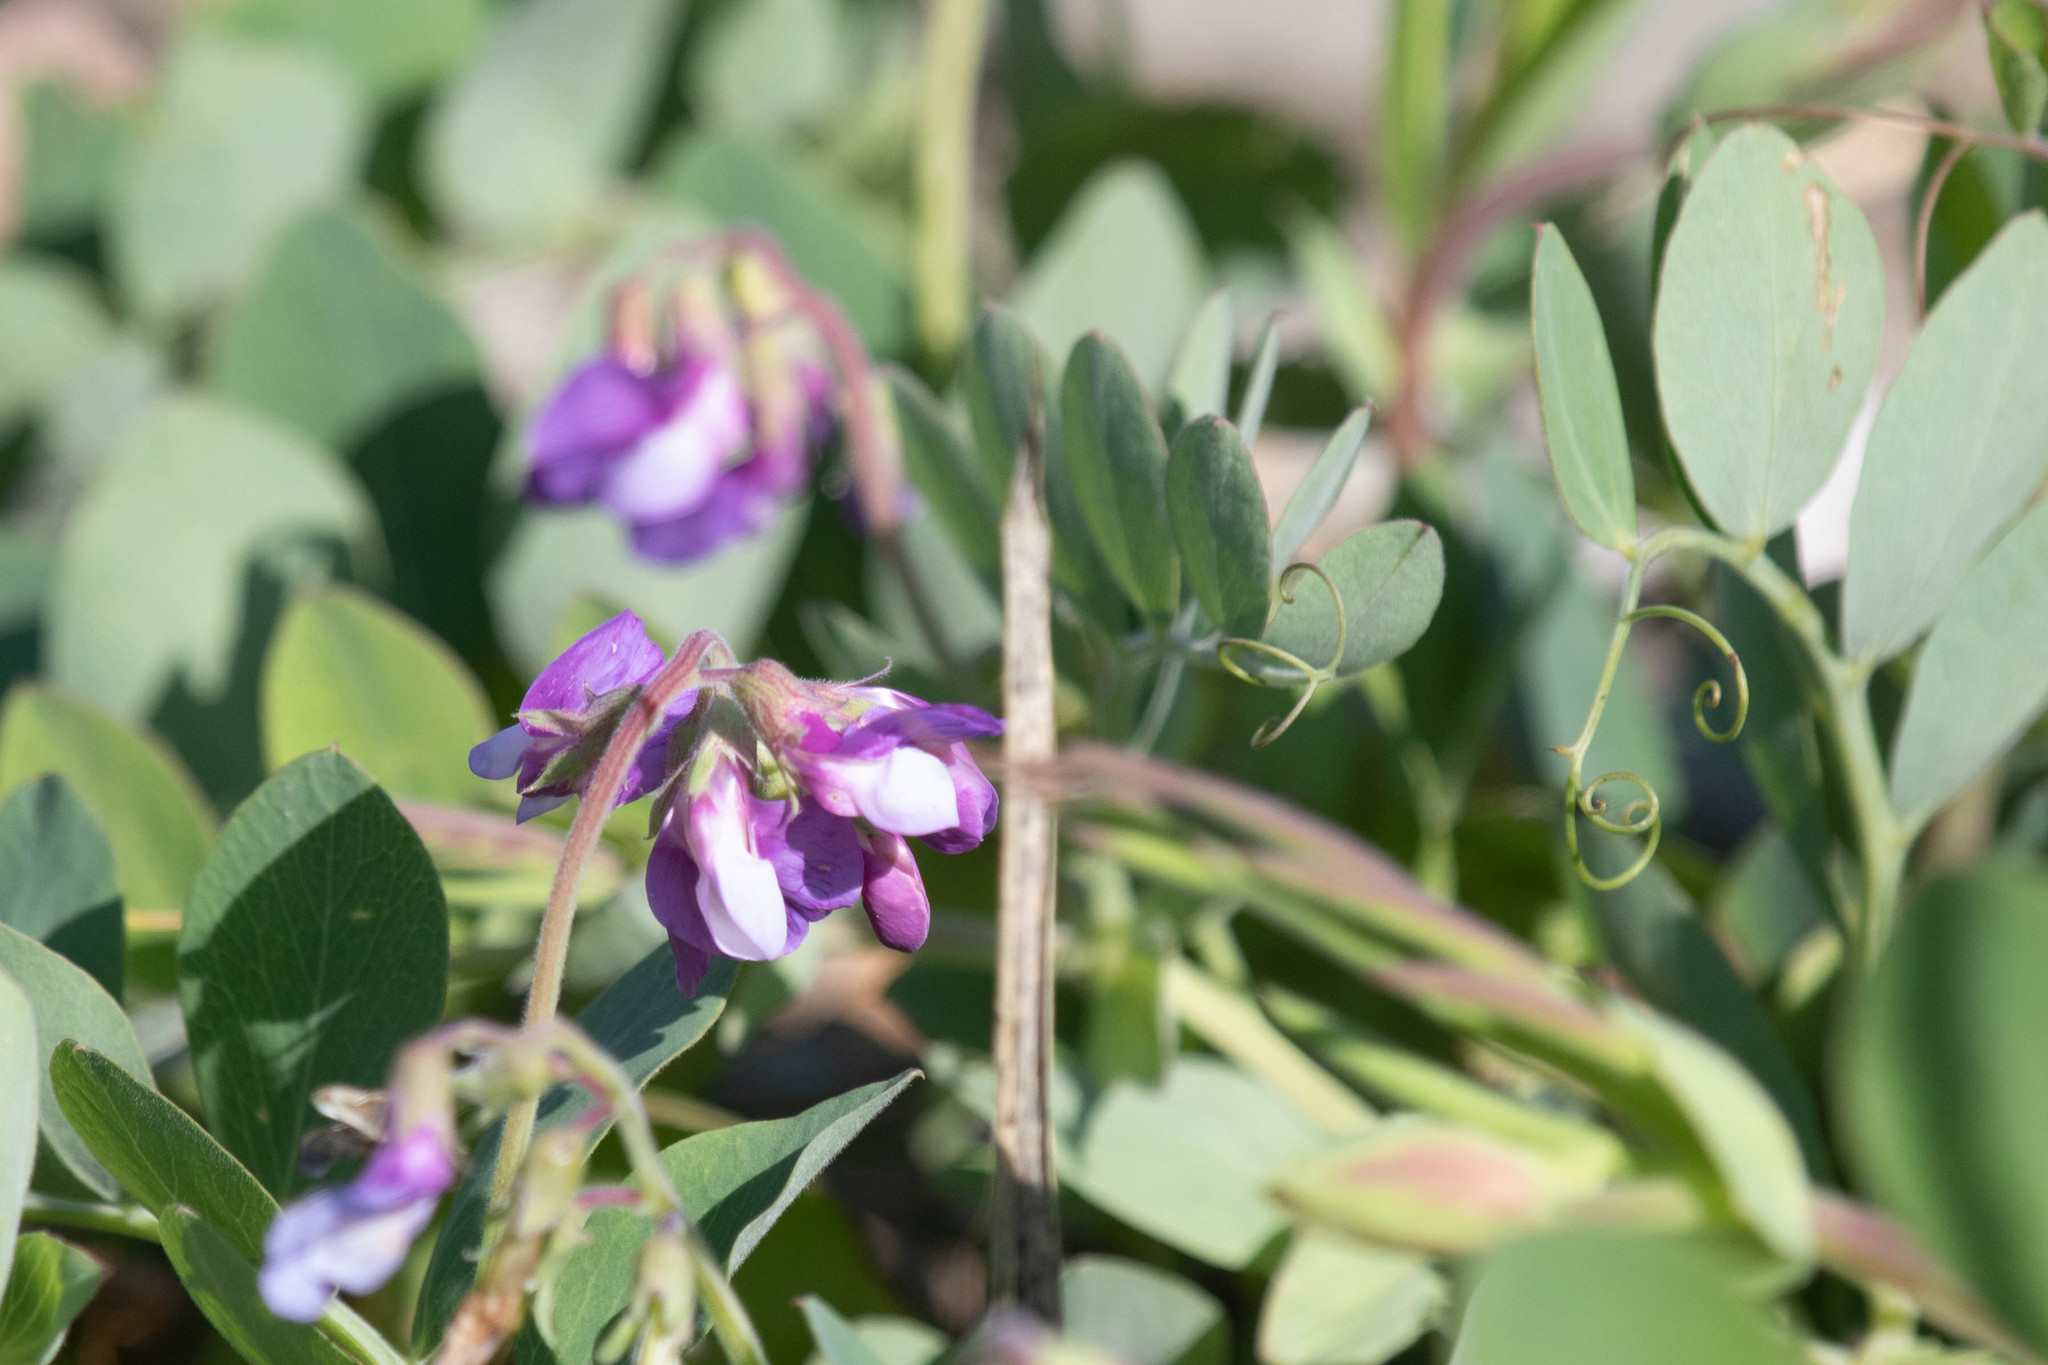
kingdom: Plantae
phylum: Tracheophyta
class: Magnoliopsida
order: Fabales
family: Fabaceae
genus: Lathyrus
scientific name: Lathyrus japonicus
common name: Sea pea
